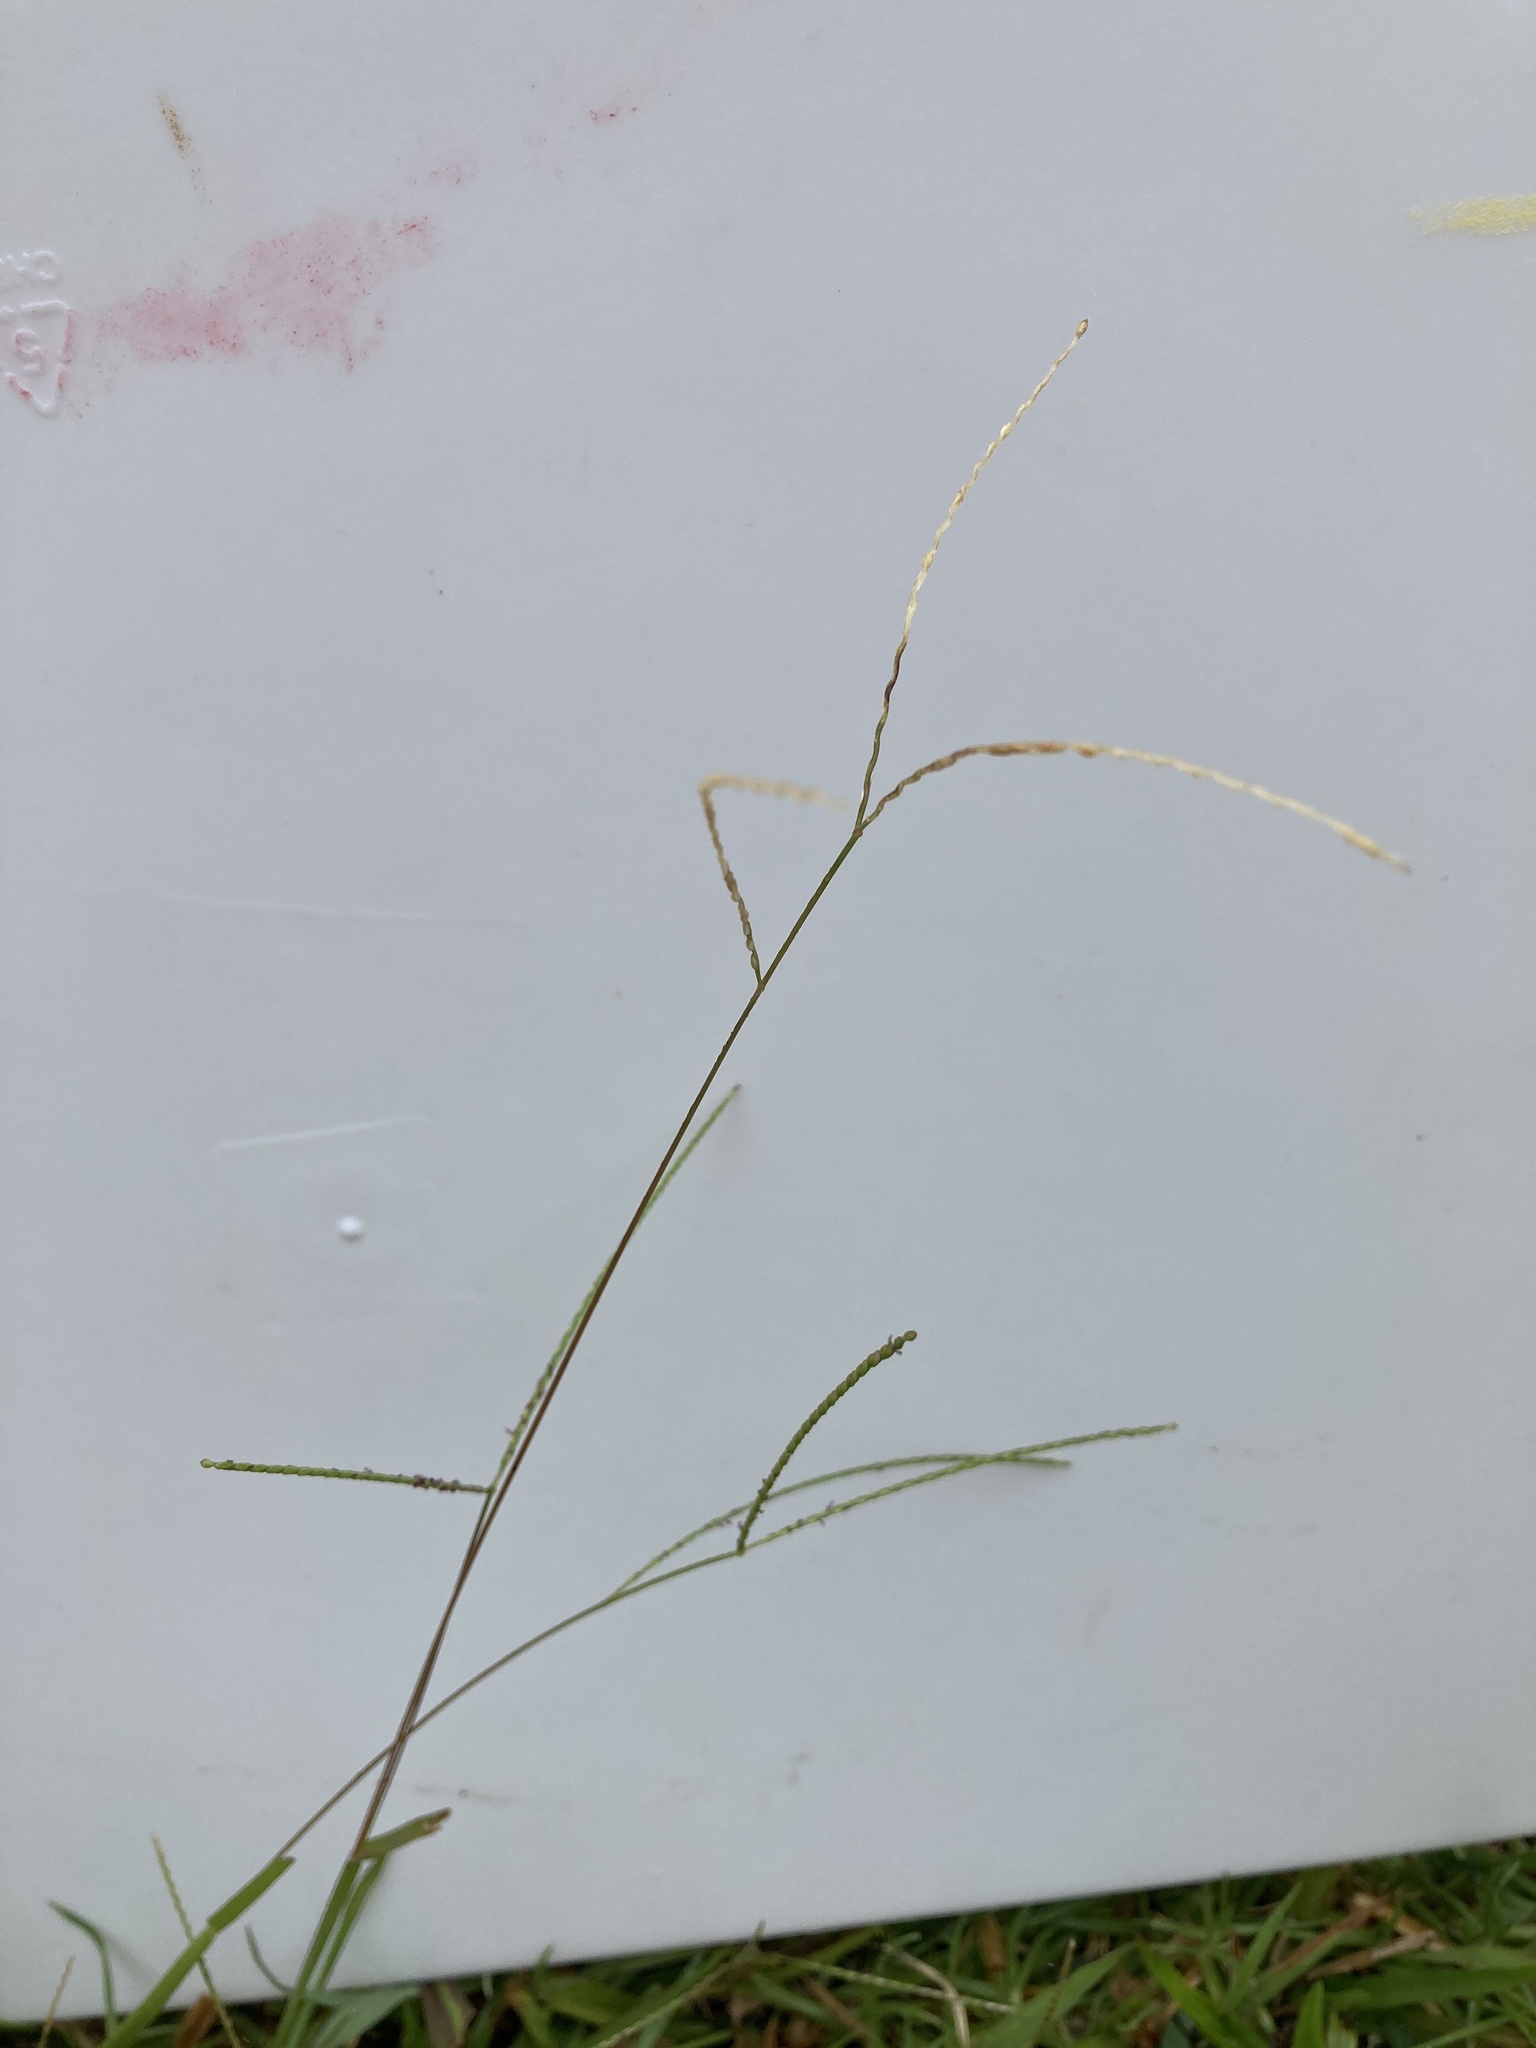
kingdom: Plantae
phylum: Tracheophyta
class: Liliopsida
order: Poales
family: Poaceae
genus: Axonopus
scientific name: Axonopus fissifolius
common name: Common carpetgrass
